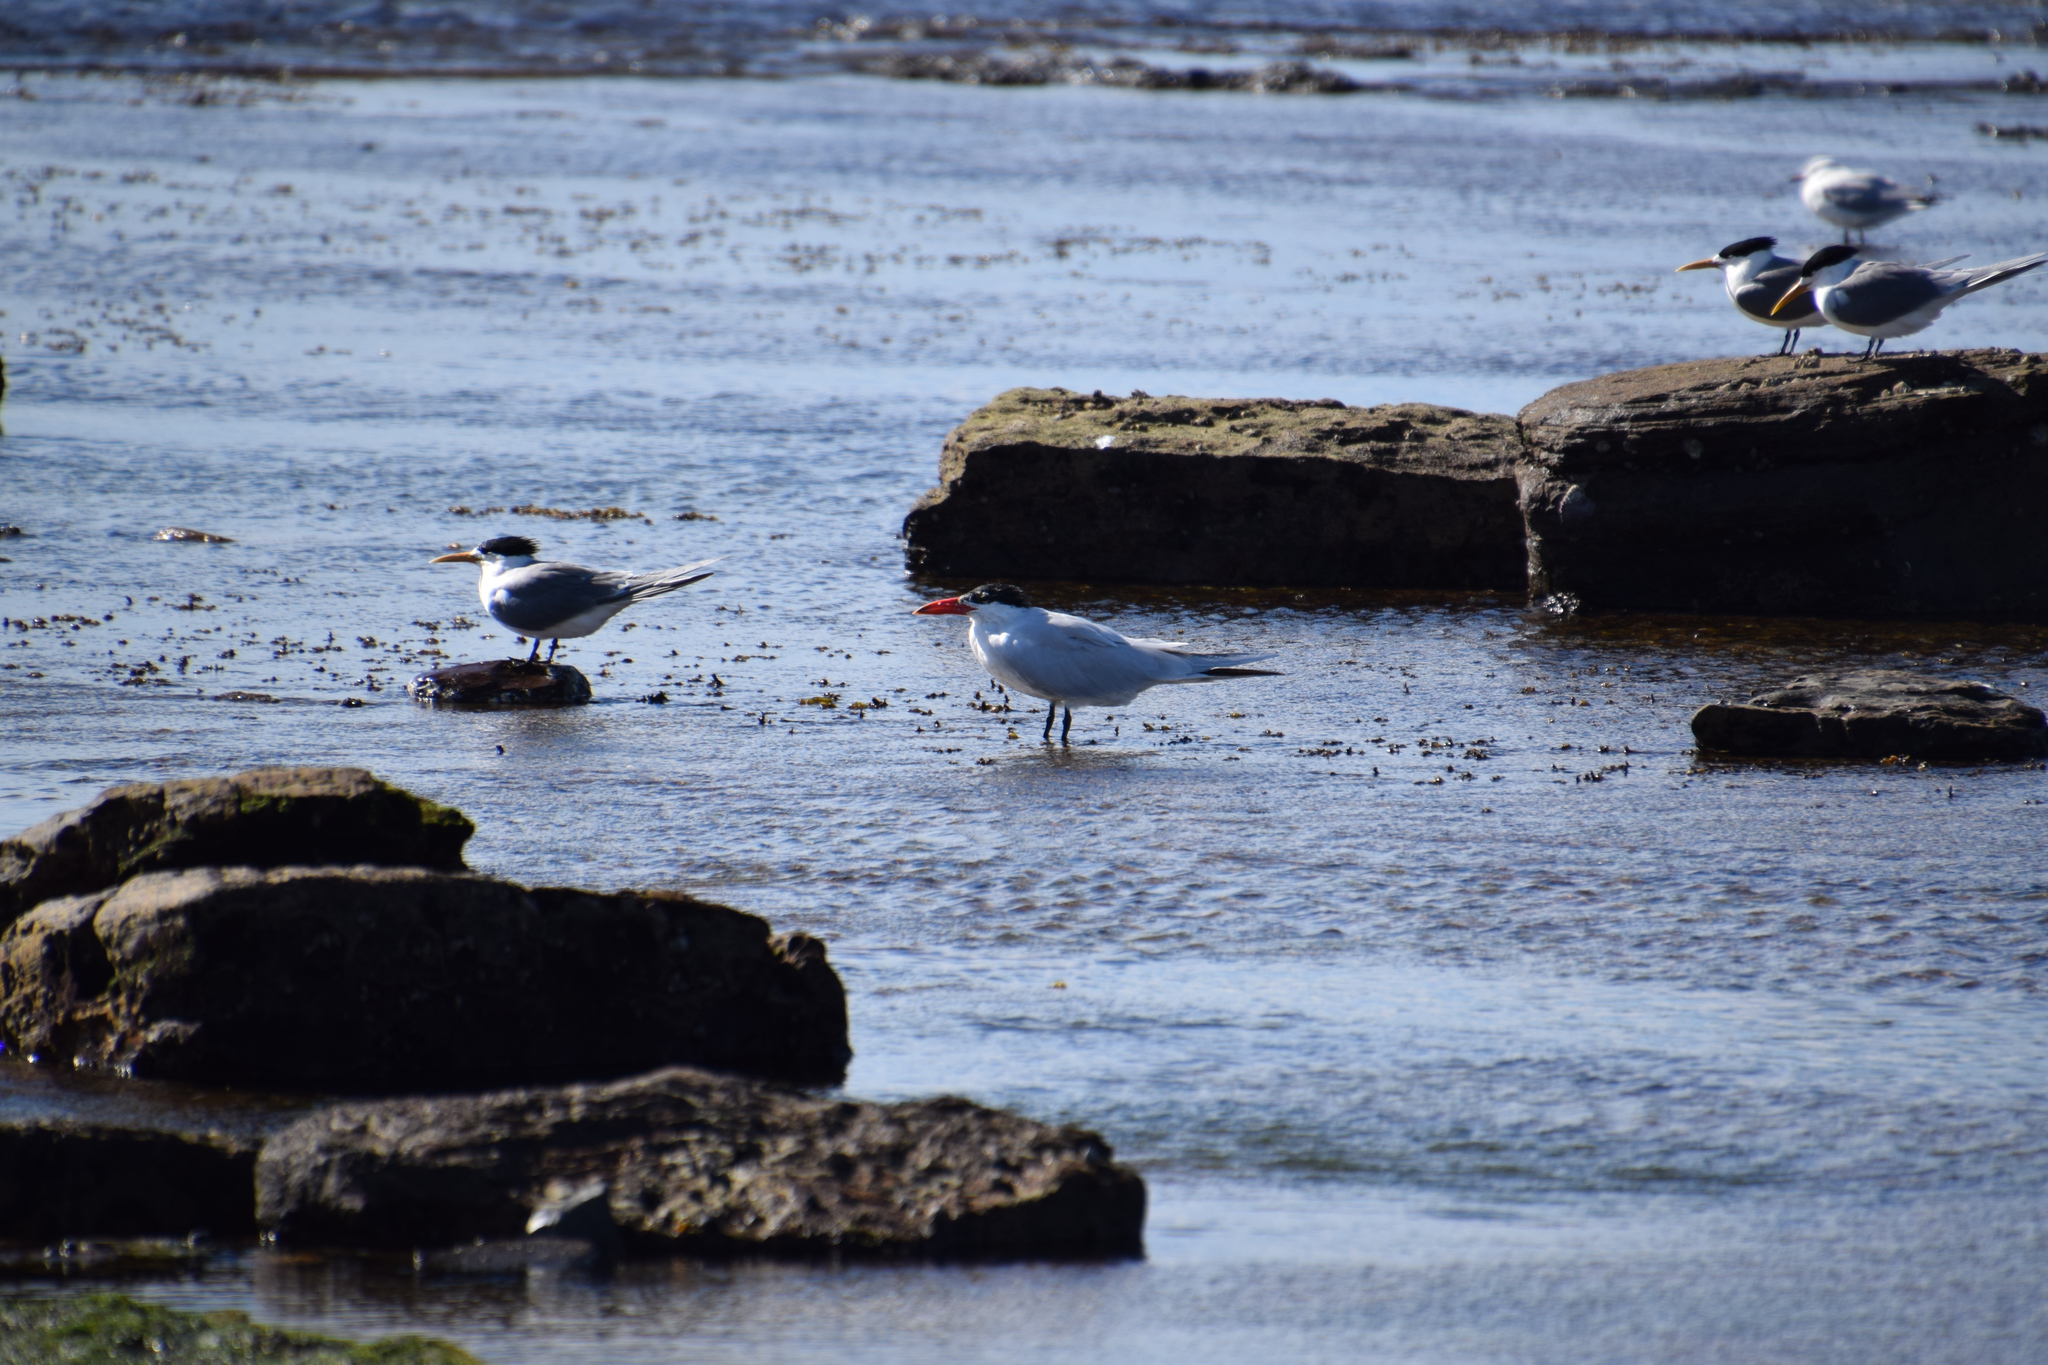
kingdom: Animalia
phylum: Chordata
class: Aves
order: Charadriiformes
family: Laridae
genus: Hydroprogne
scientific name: Hydroprogne caspia
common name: Caspian tern
